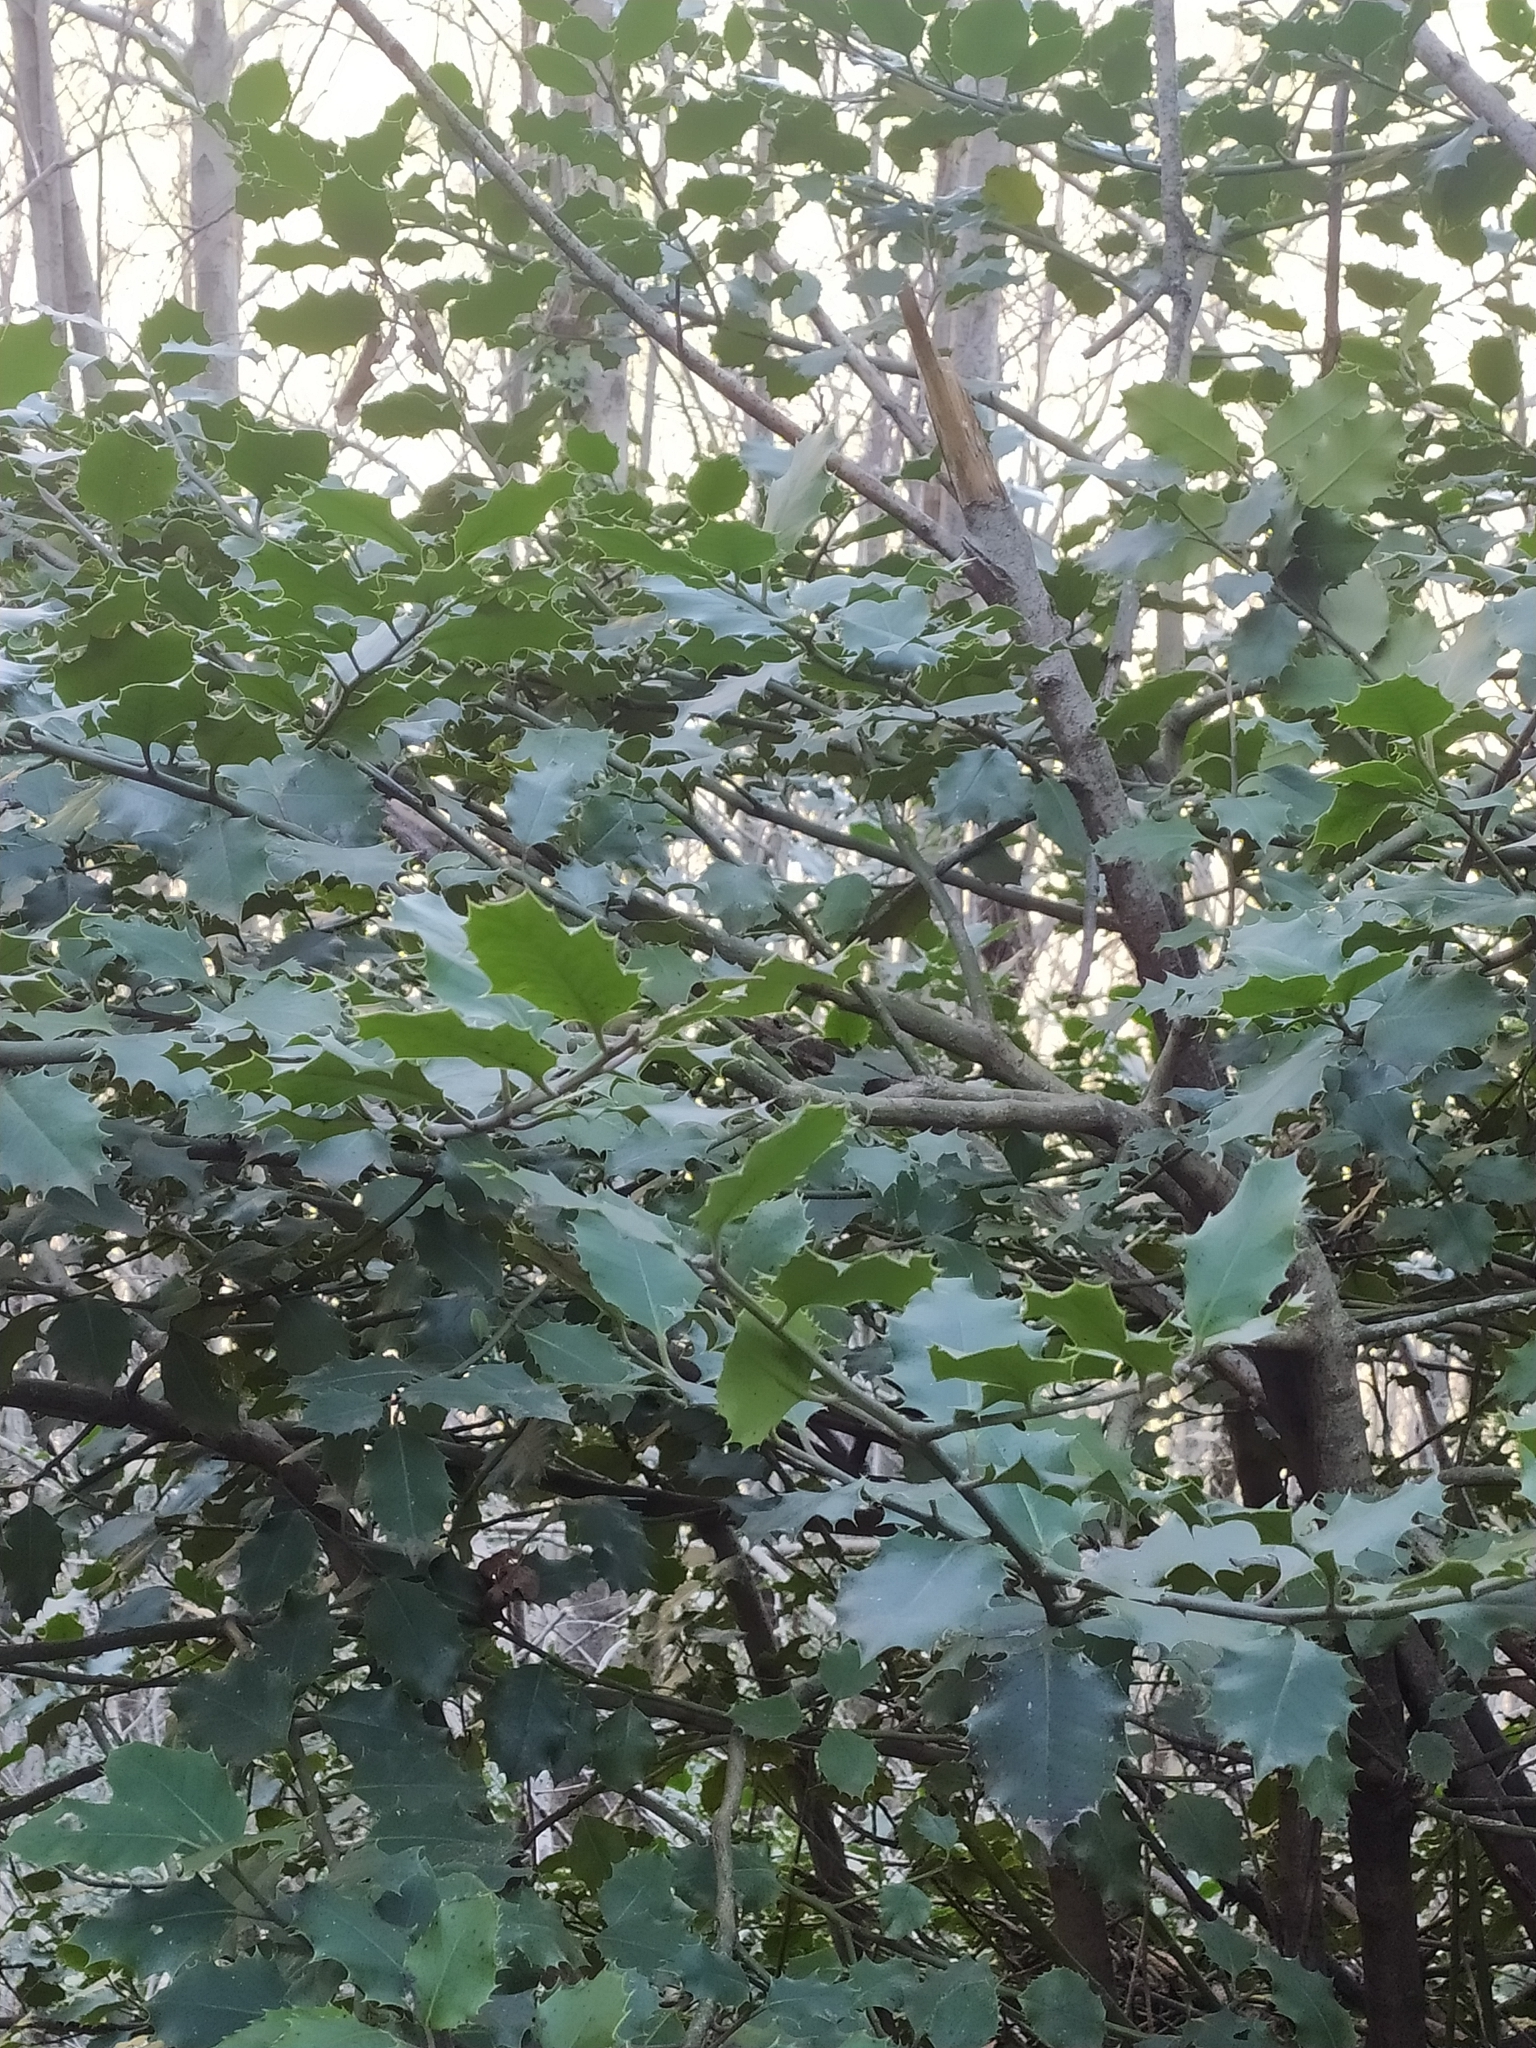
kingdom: Plantae
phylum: Tracheophyta
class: Magnoliopsida
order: Aquifoliales
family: Aquifoliaceae
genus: Ilex
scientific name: Ilex aquifolium
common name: English holly
